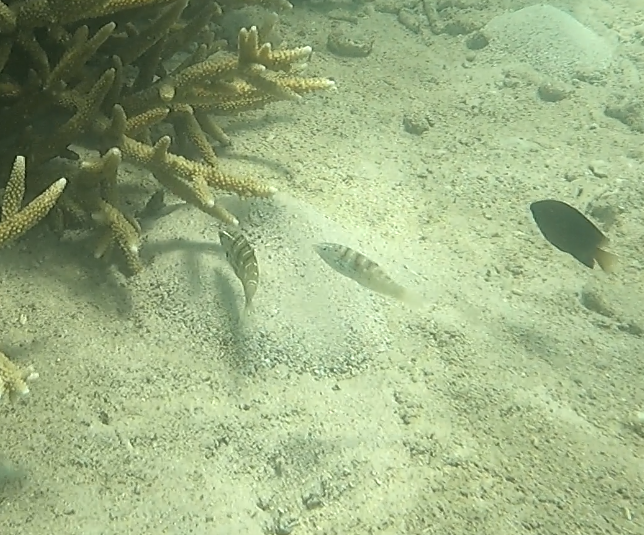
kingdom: Animalia
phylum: Chordata
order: Perciformes
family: Labridae
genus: Coris
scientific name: Coris batuensis
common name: Batu coris
